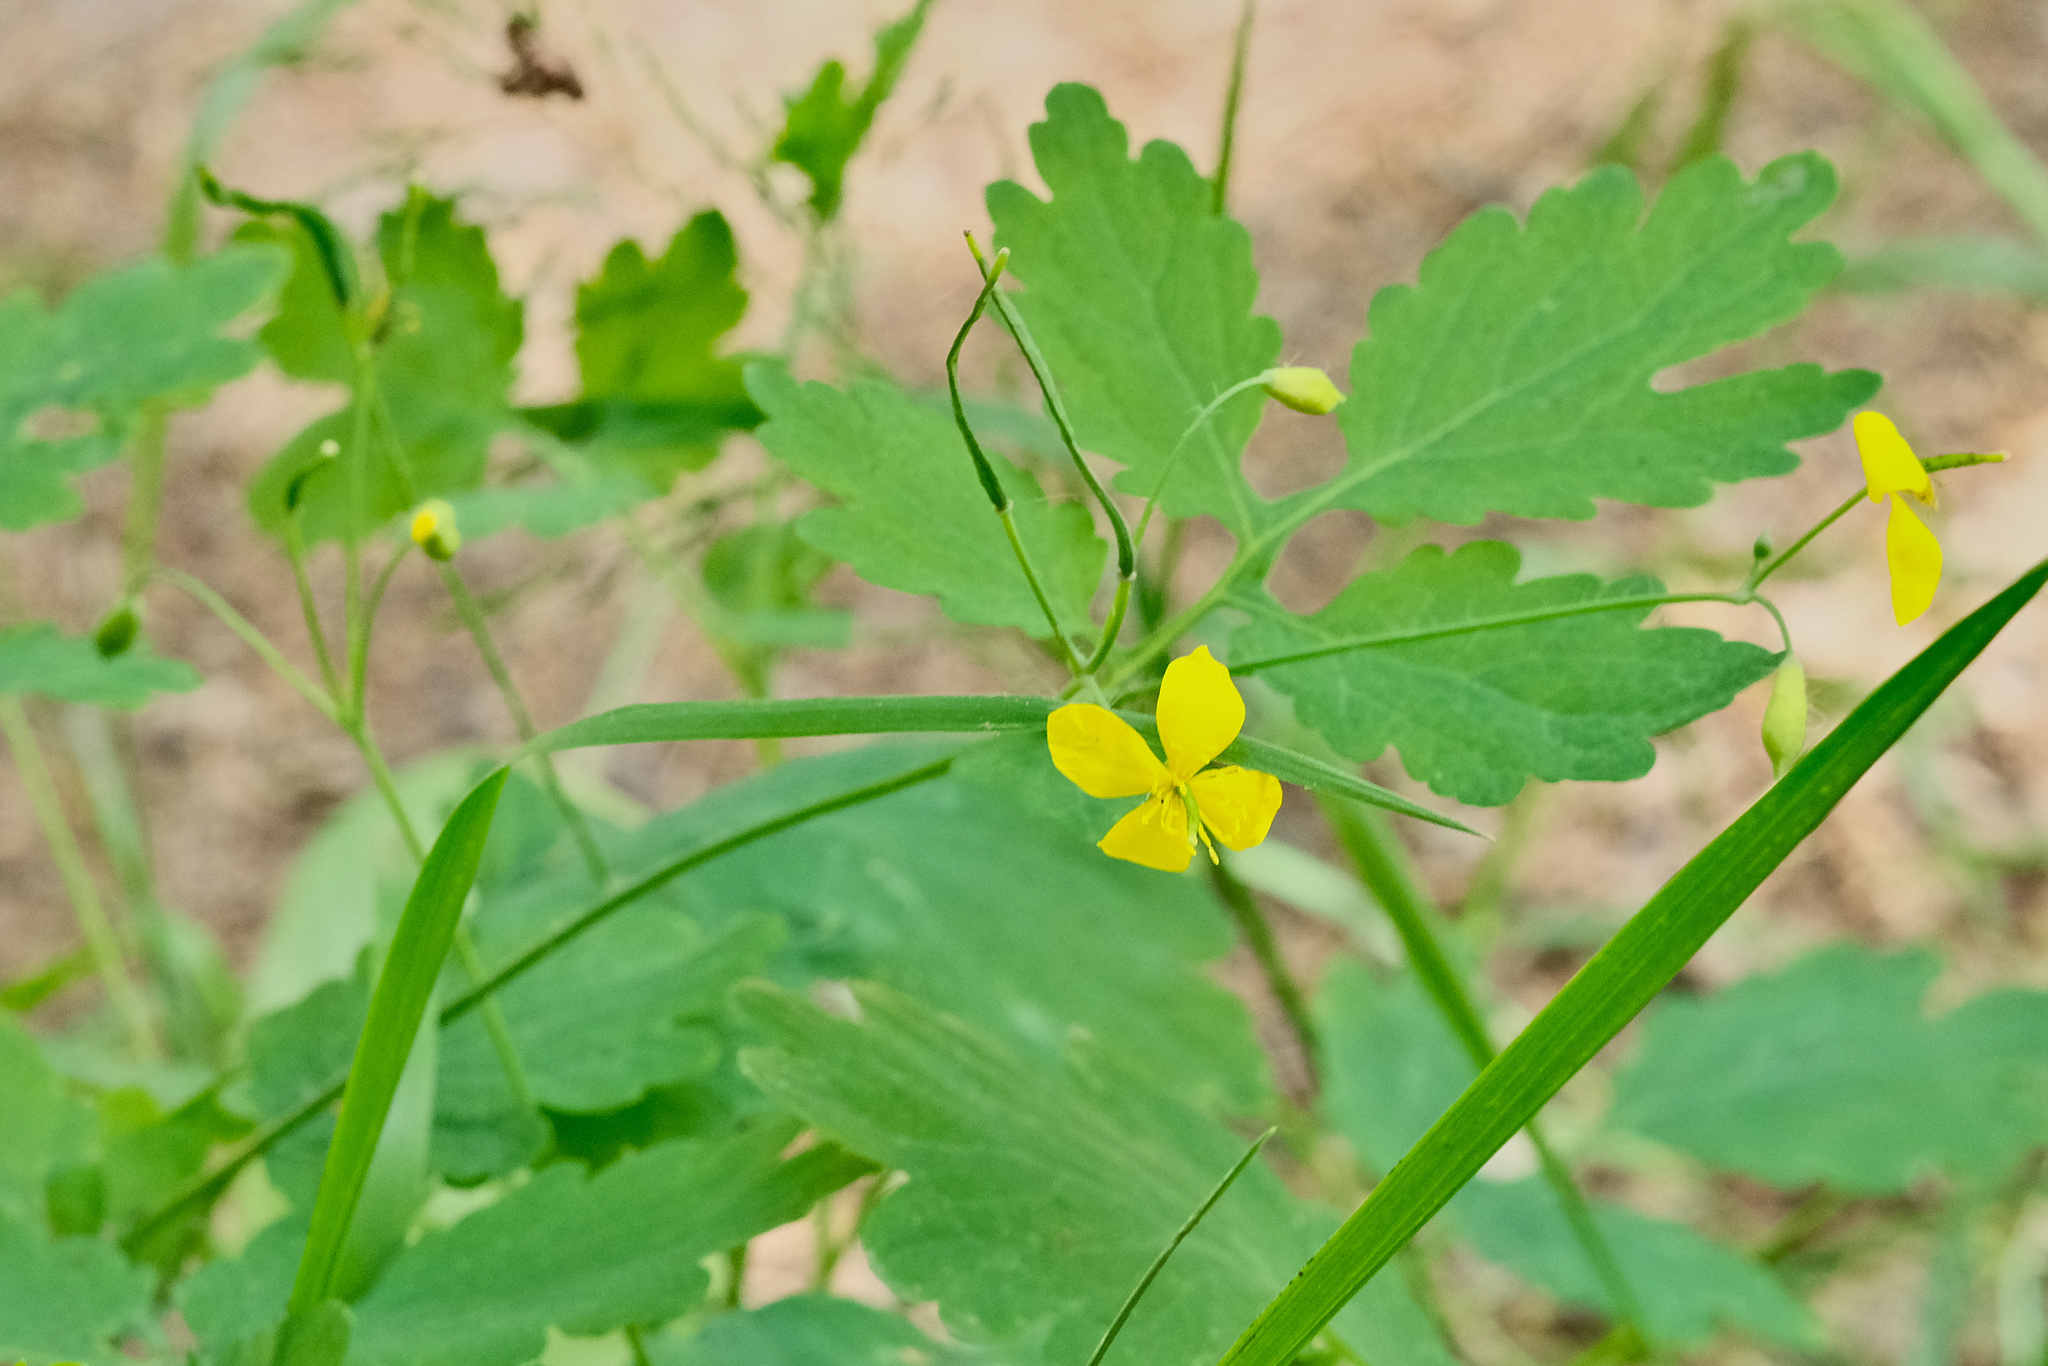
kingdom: Plantae
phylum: Tracheophyta
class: Magnoliopsida
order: Ranunculales
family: Papaveraceae
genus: Chelidonium
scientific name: Chelidonium majus
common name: Greater celandine
